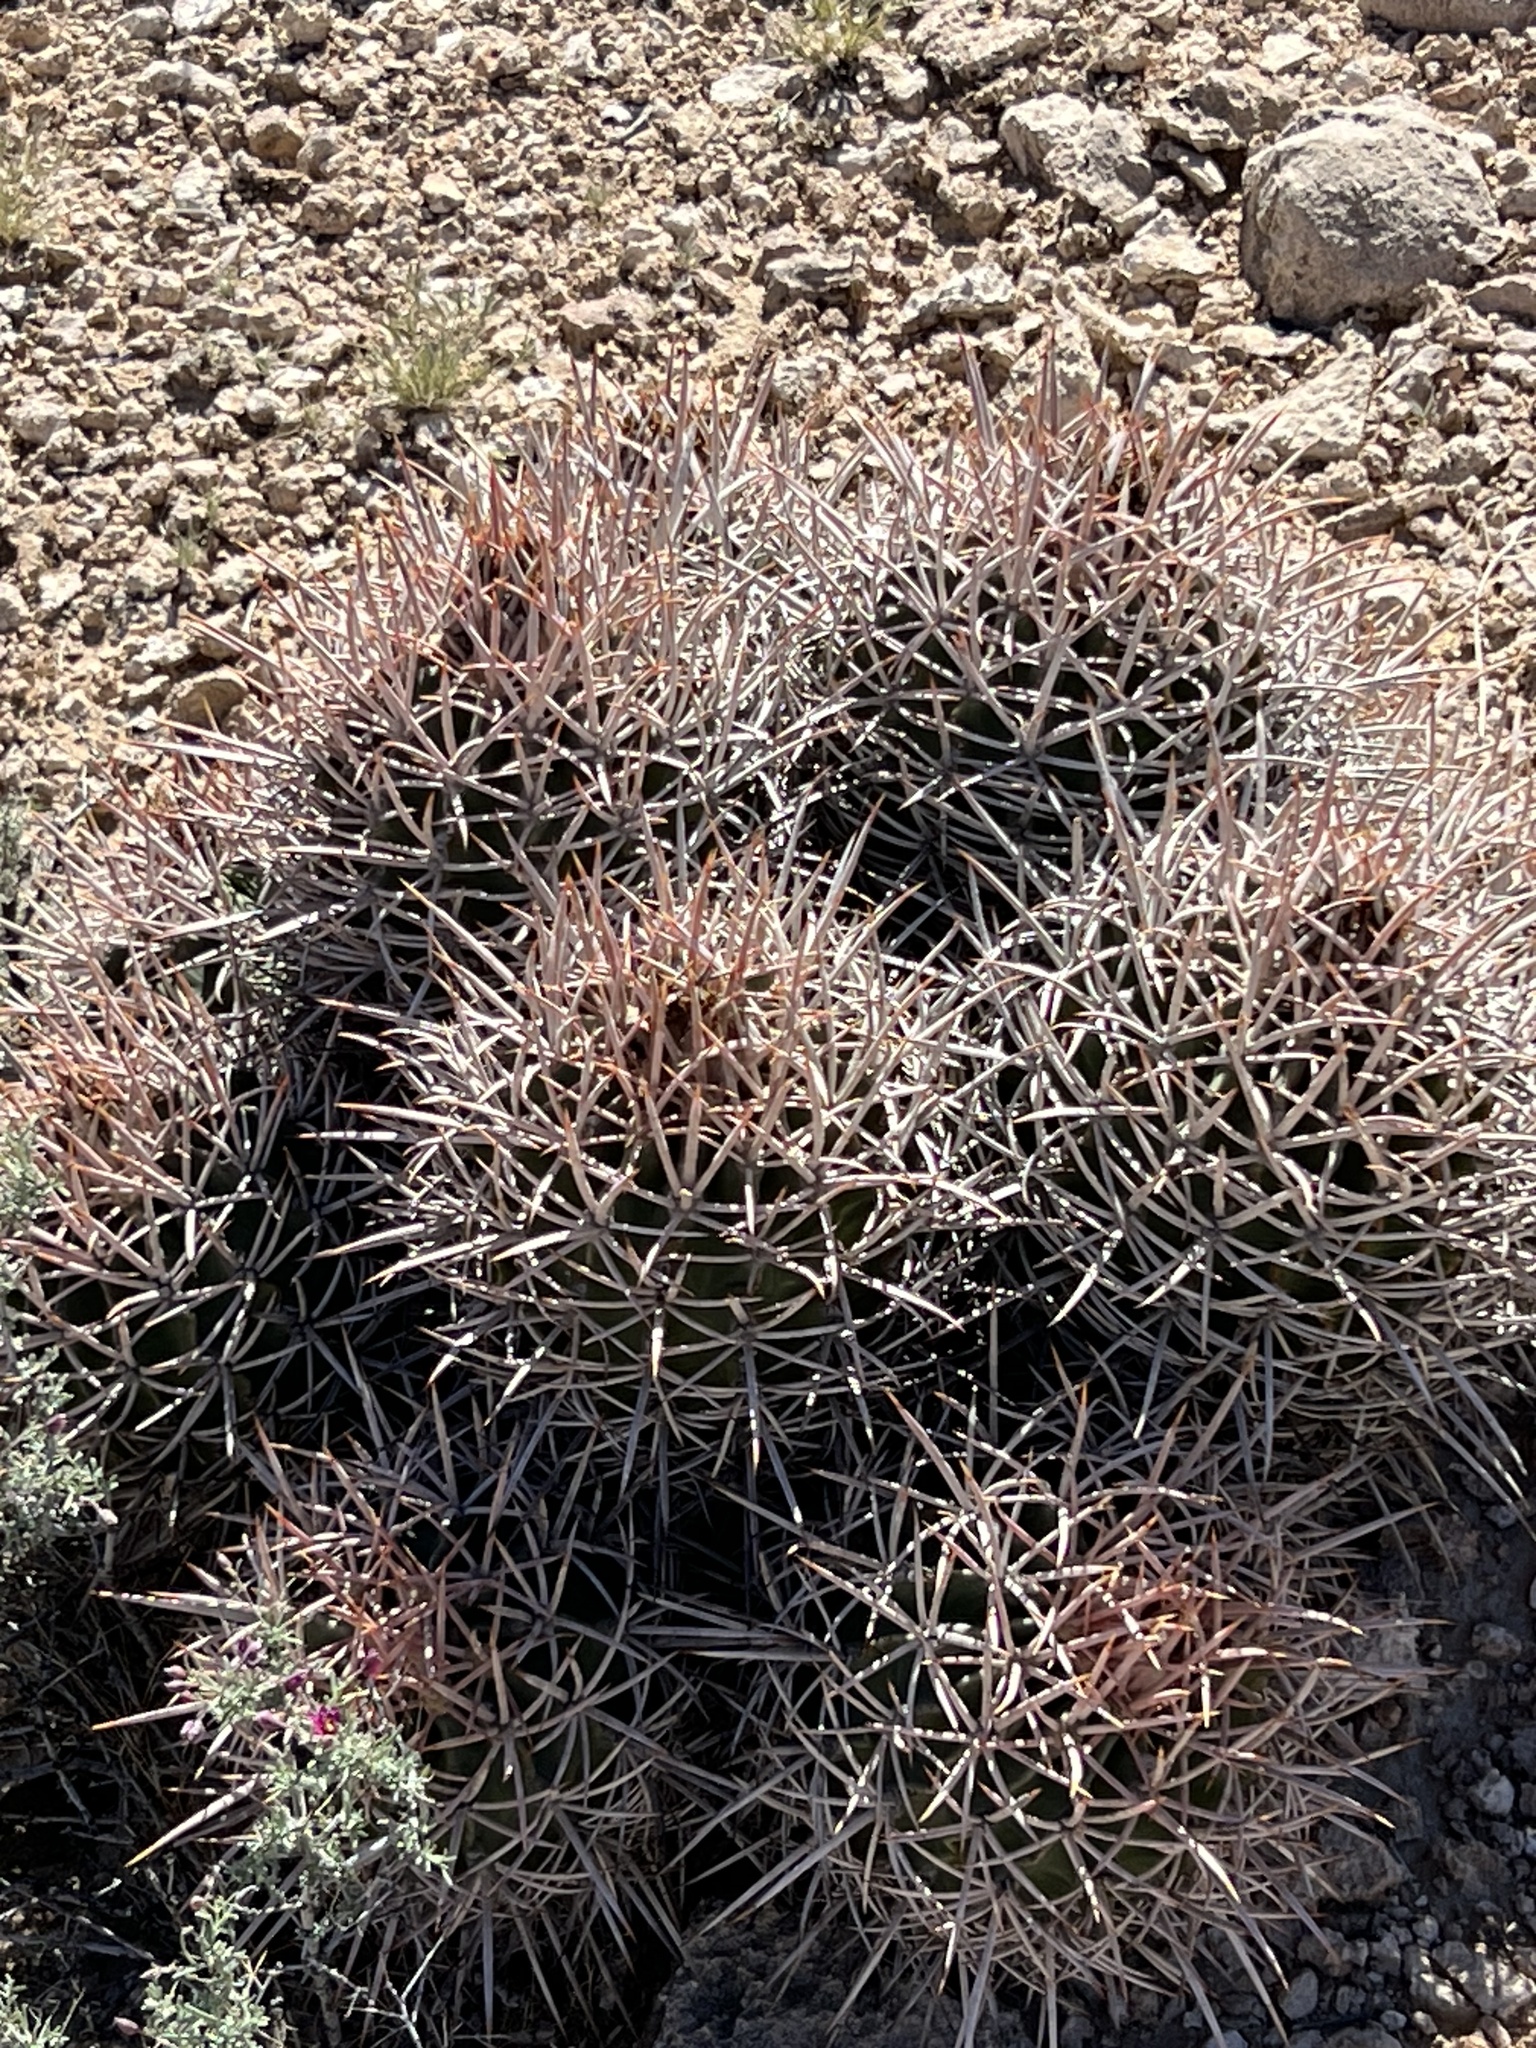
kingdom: Plantae
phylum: Tracheophyta
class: Magnoliopsida
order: Caryophyllales
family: Cactaceae
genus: Echinocactus
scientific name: Echinocactus polycephalus
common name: Cottontop cactus
